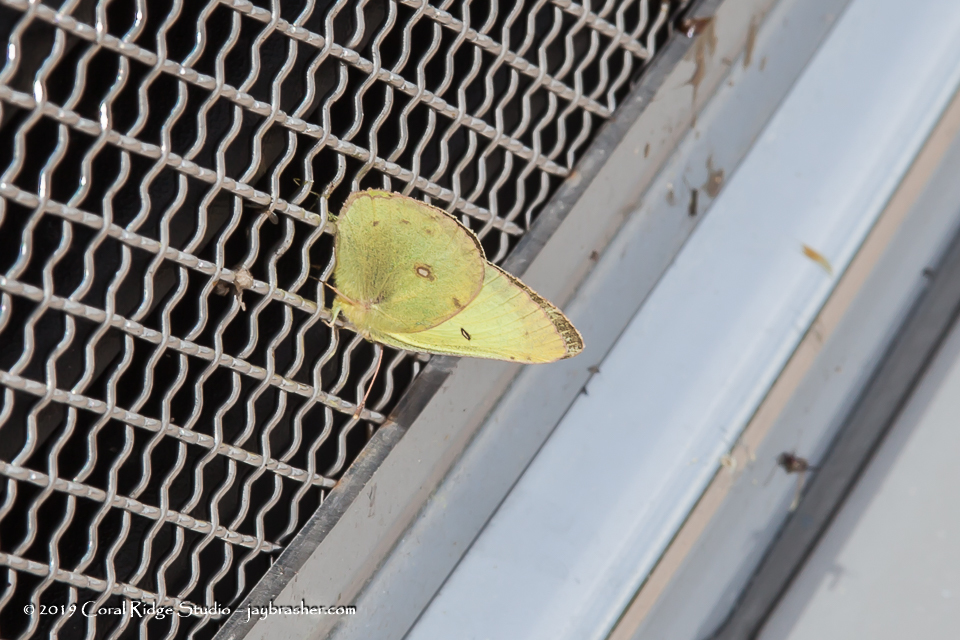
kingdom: Animalia
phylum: Arthropoda
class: Insecta
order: Lepidoptera
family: Pieridae
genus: Colias
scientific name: Colias philodice
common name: Clouded sulphur
